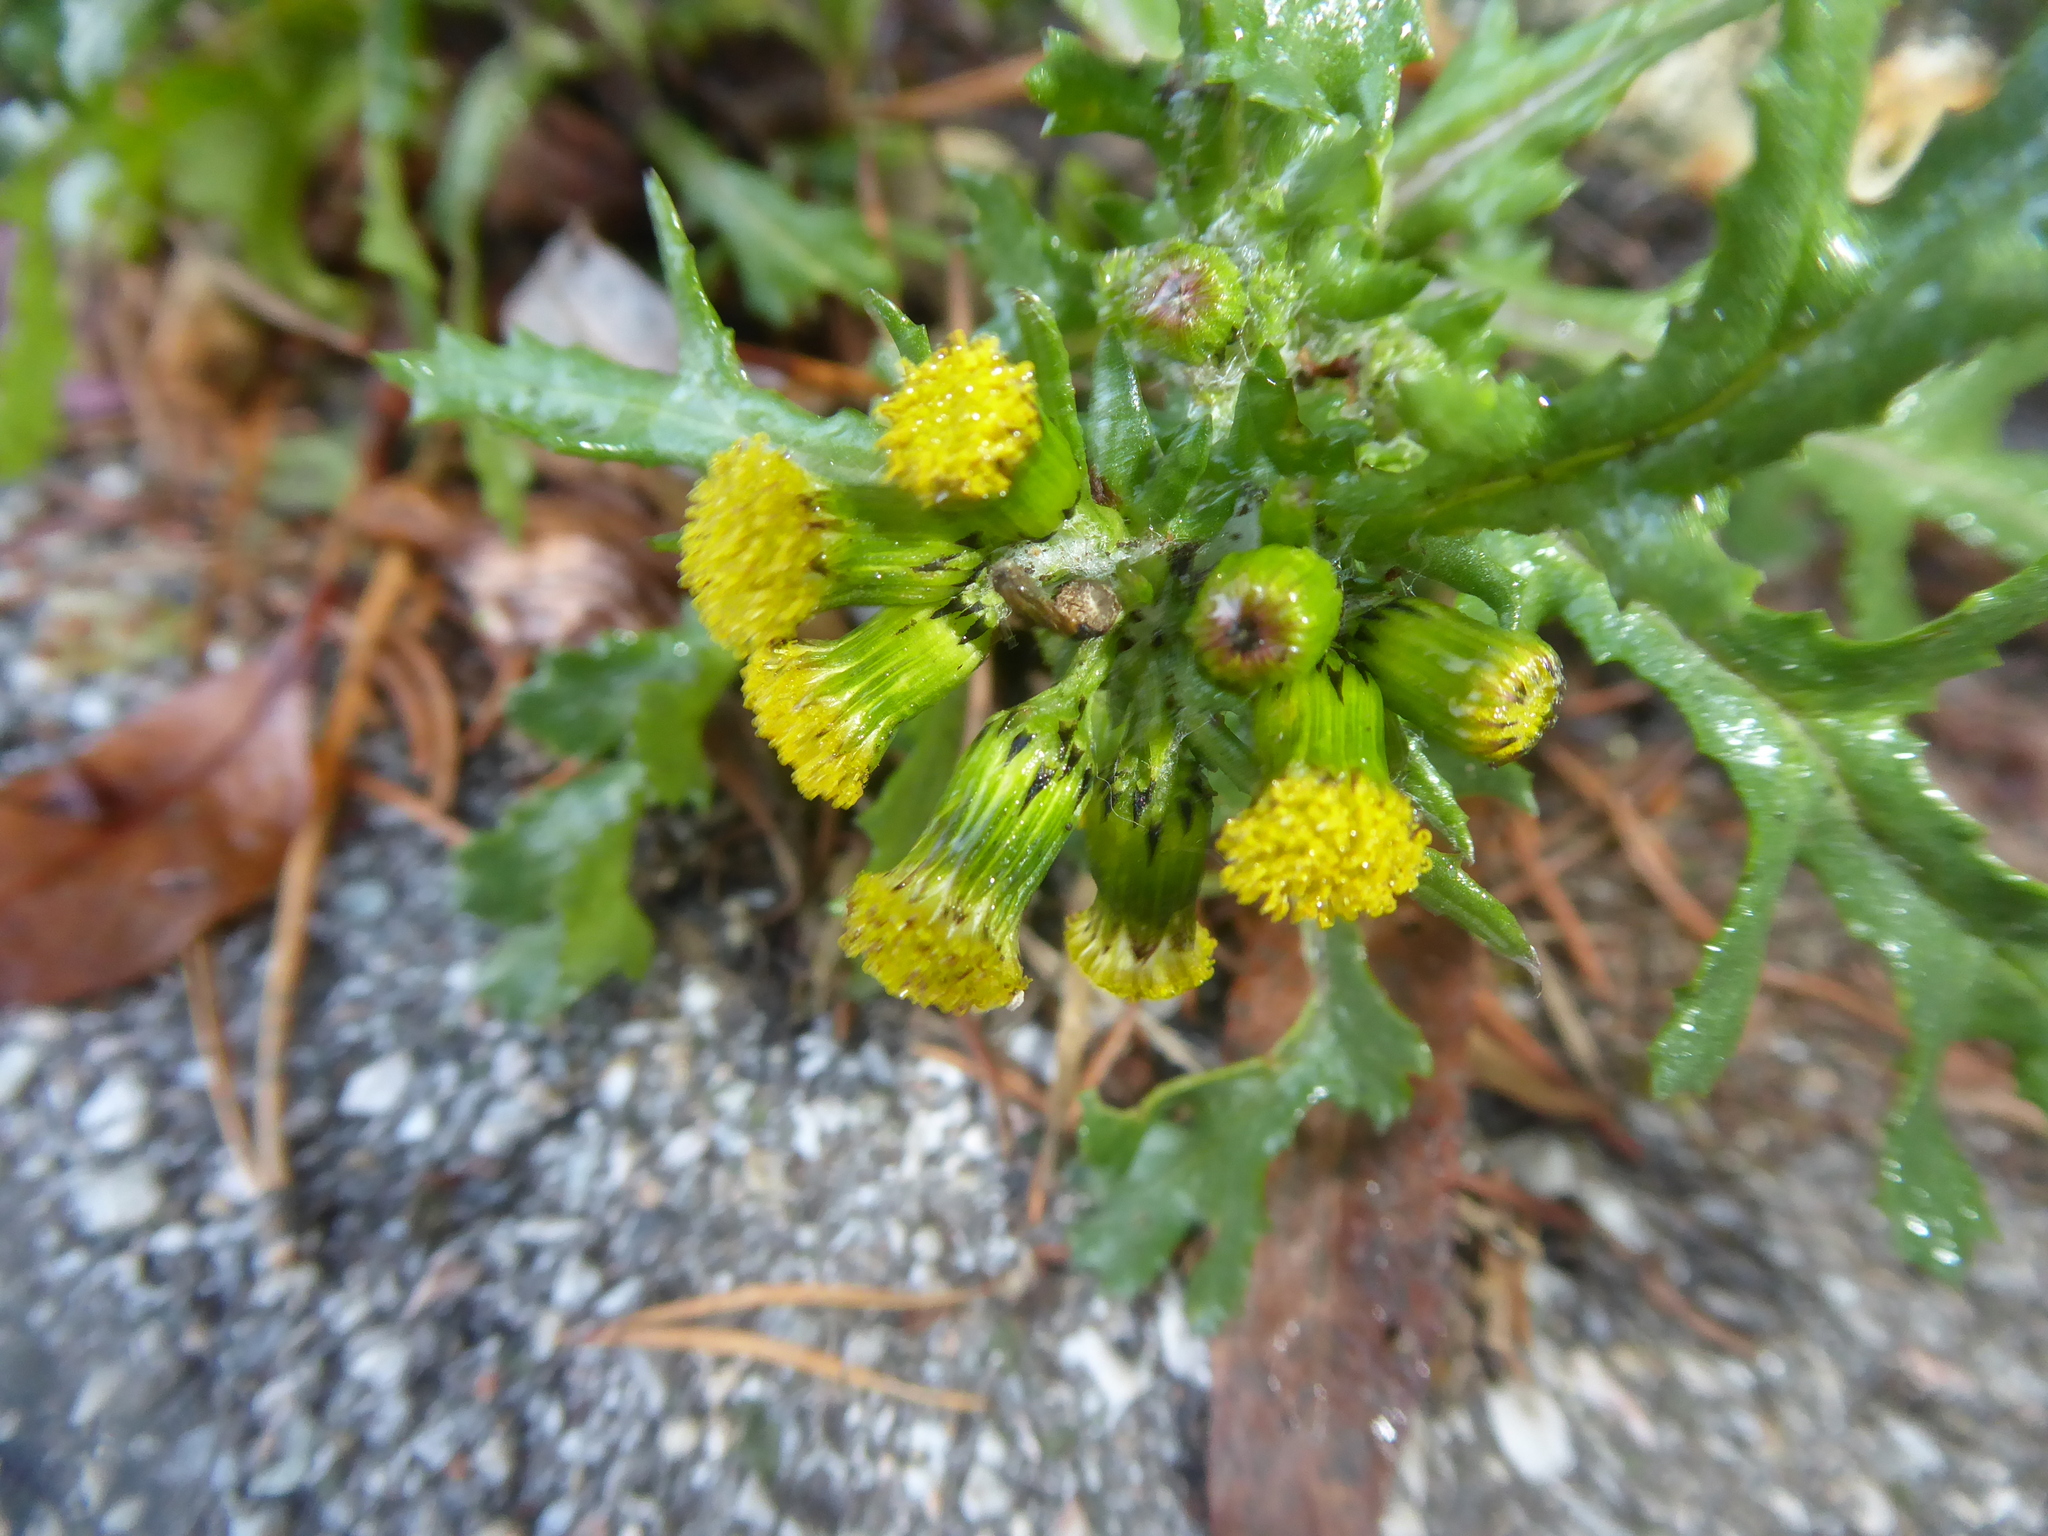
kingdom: Plantae
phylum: Tracheophyta
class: Magnoliopsida
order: Asterales
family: Asteraceae
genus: Senecio
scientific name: Senecio vulgaris
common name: Old-man-in-the-spring
